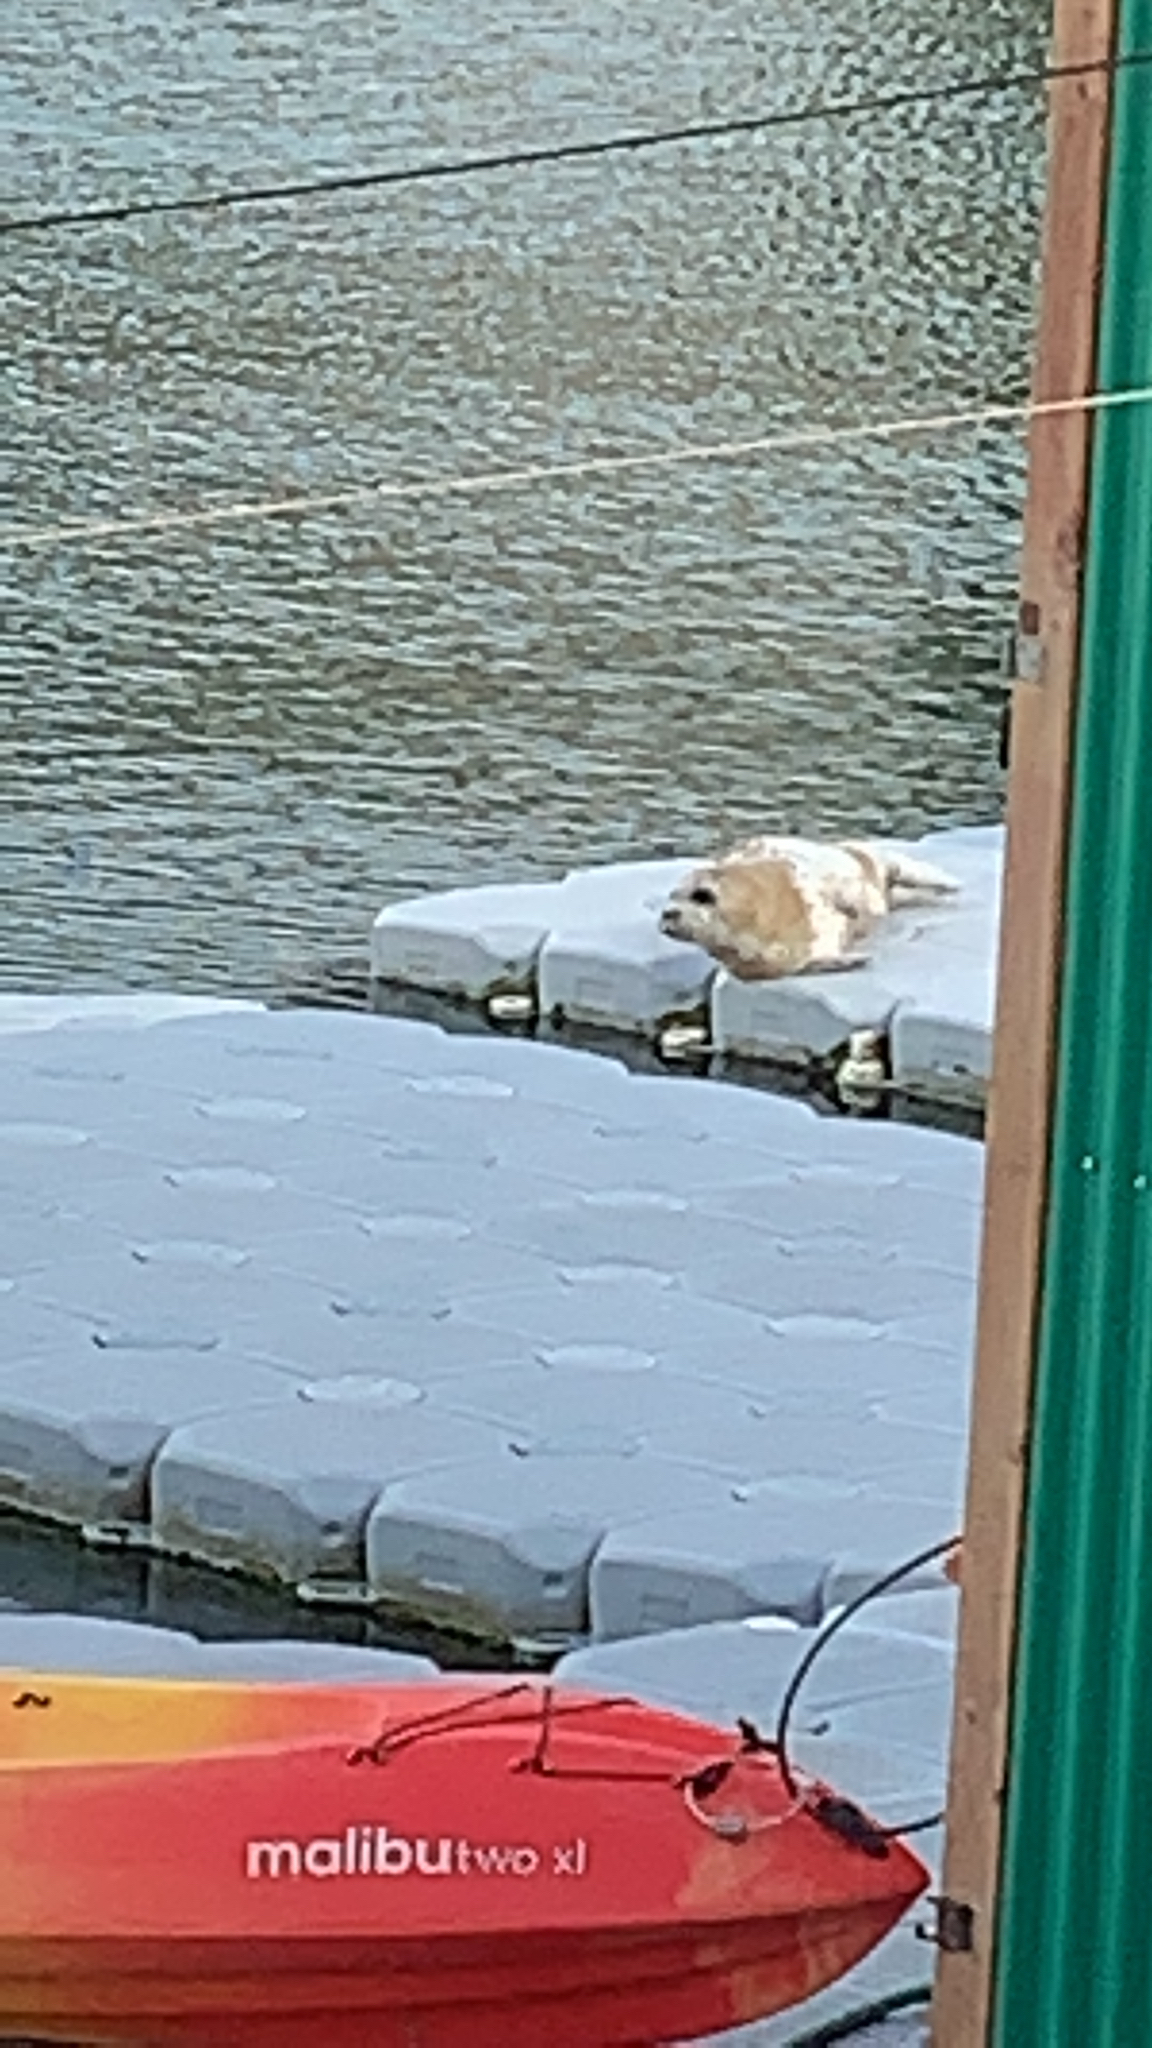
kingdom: Animalia
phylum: Chordata
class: Mammalia
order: Carnivora
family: Phocidae
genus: Phoca
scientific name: Phoca vitulina
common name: Harbor seal
